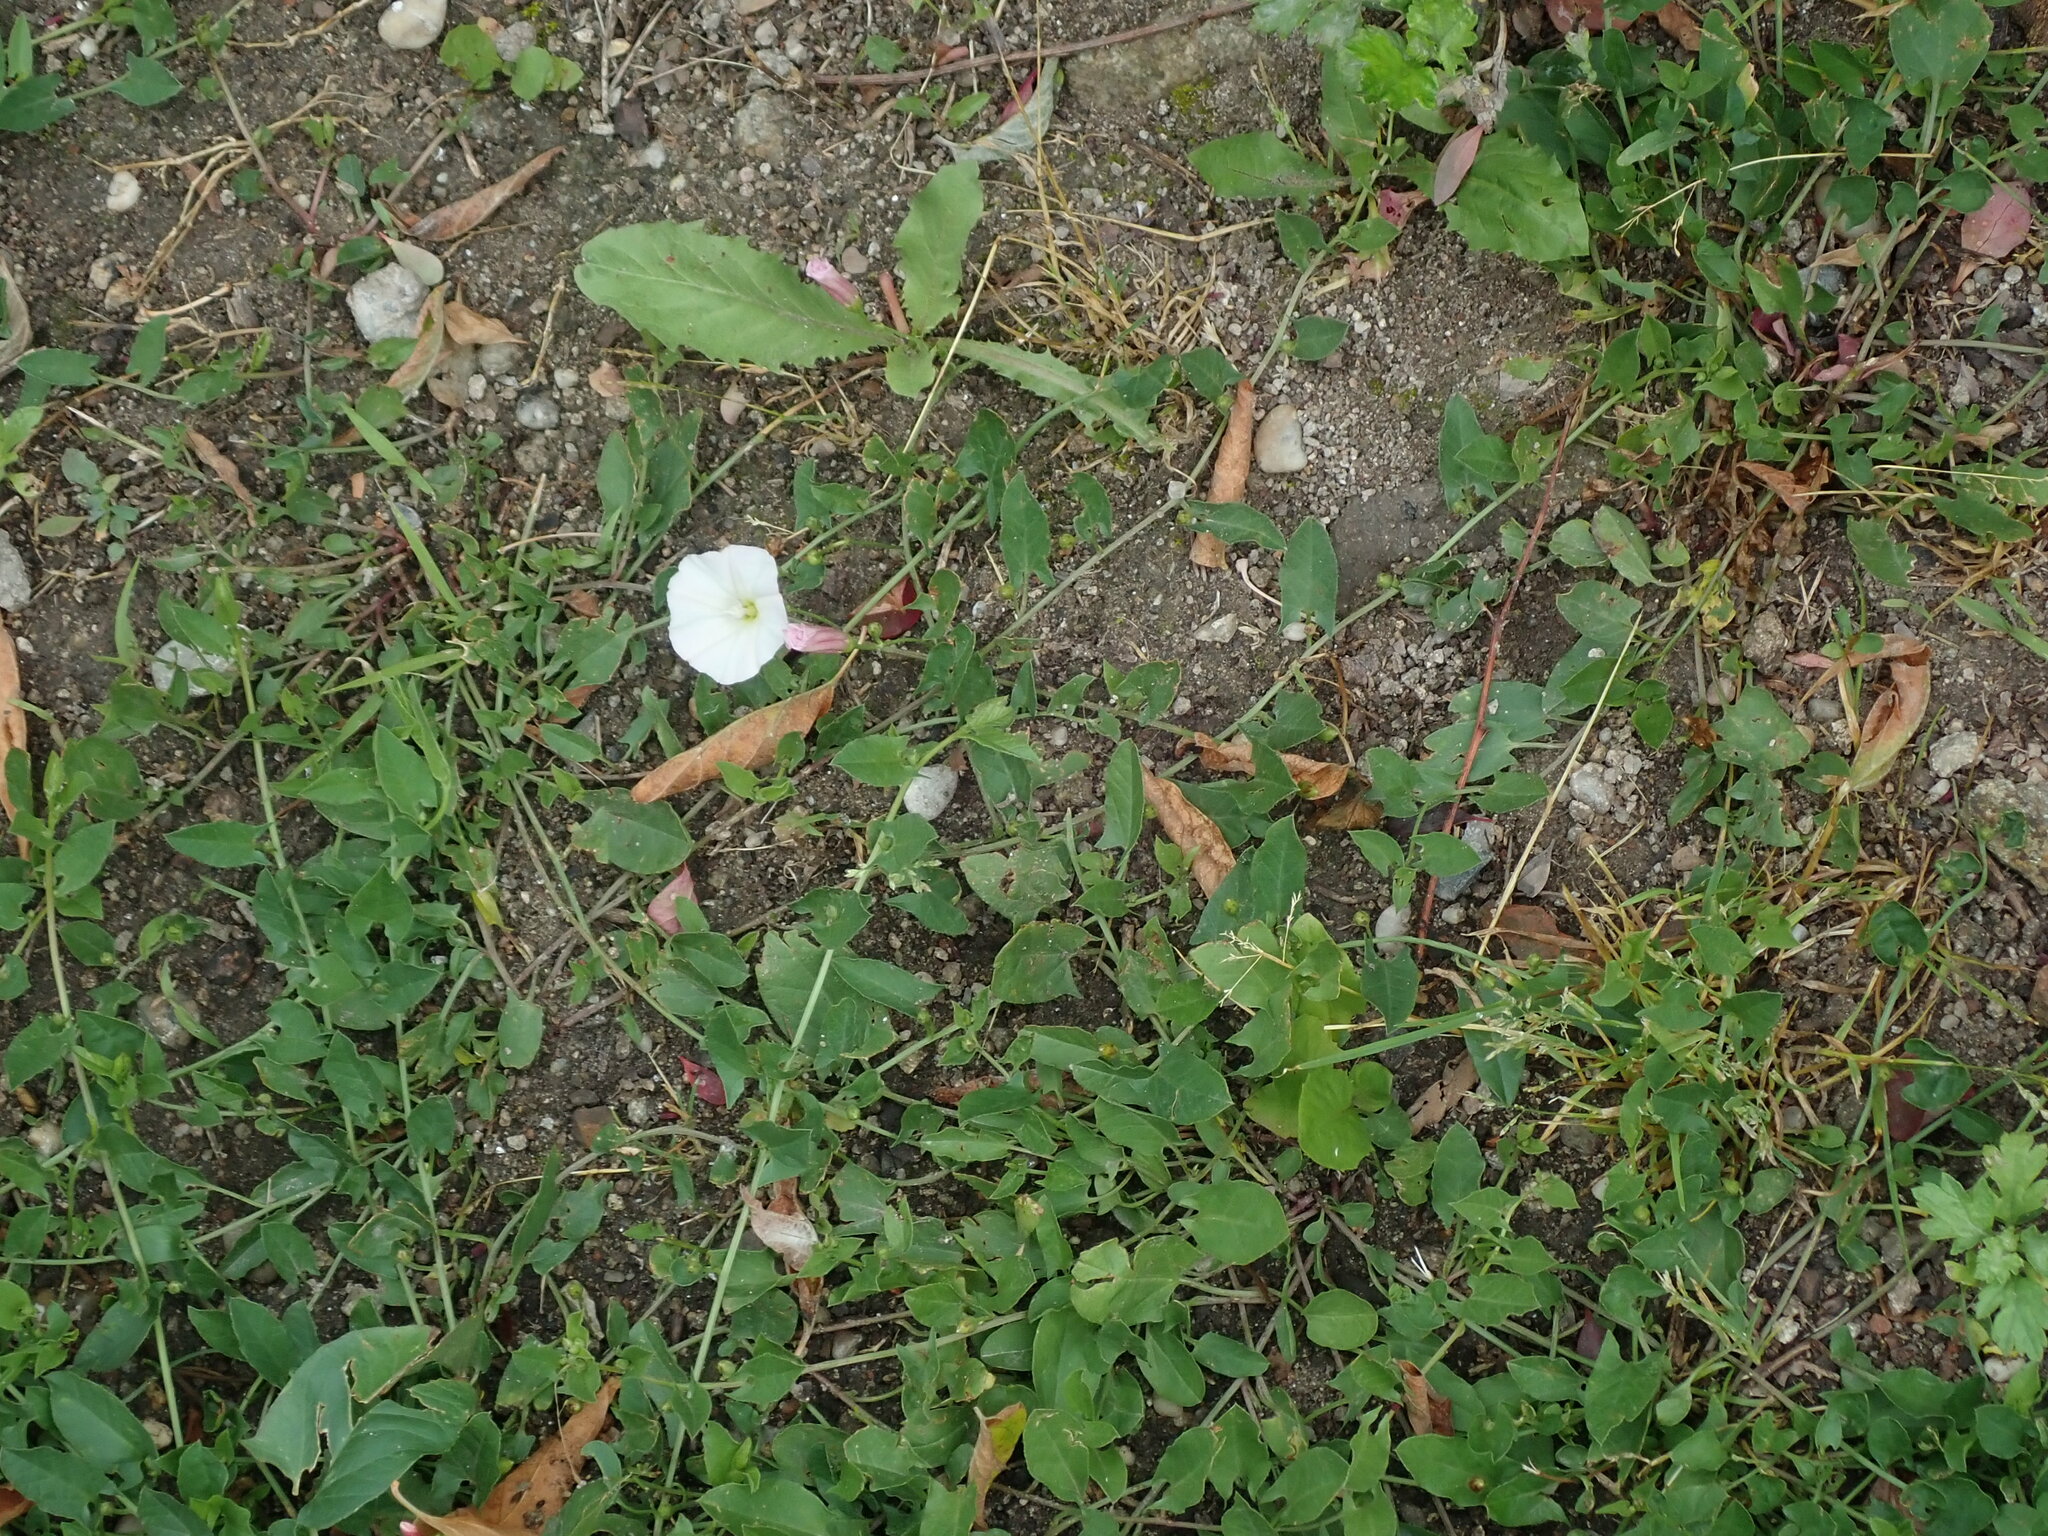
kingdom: Plantae
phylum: Tracheophyta
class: Magnoliopsida
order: Solanales
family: Convolvulaceae
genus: Convolvulus
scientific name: Convolvulus arvensis
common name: Field bindweed
